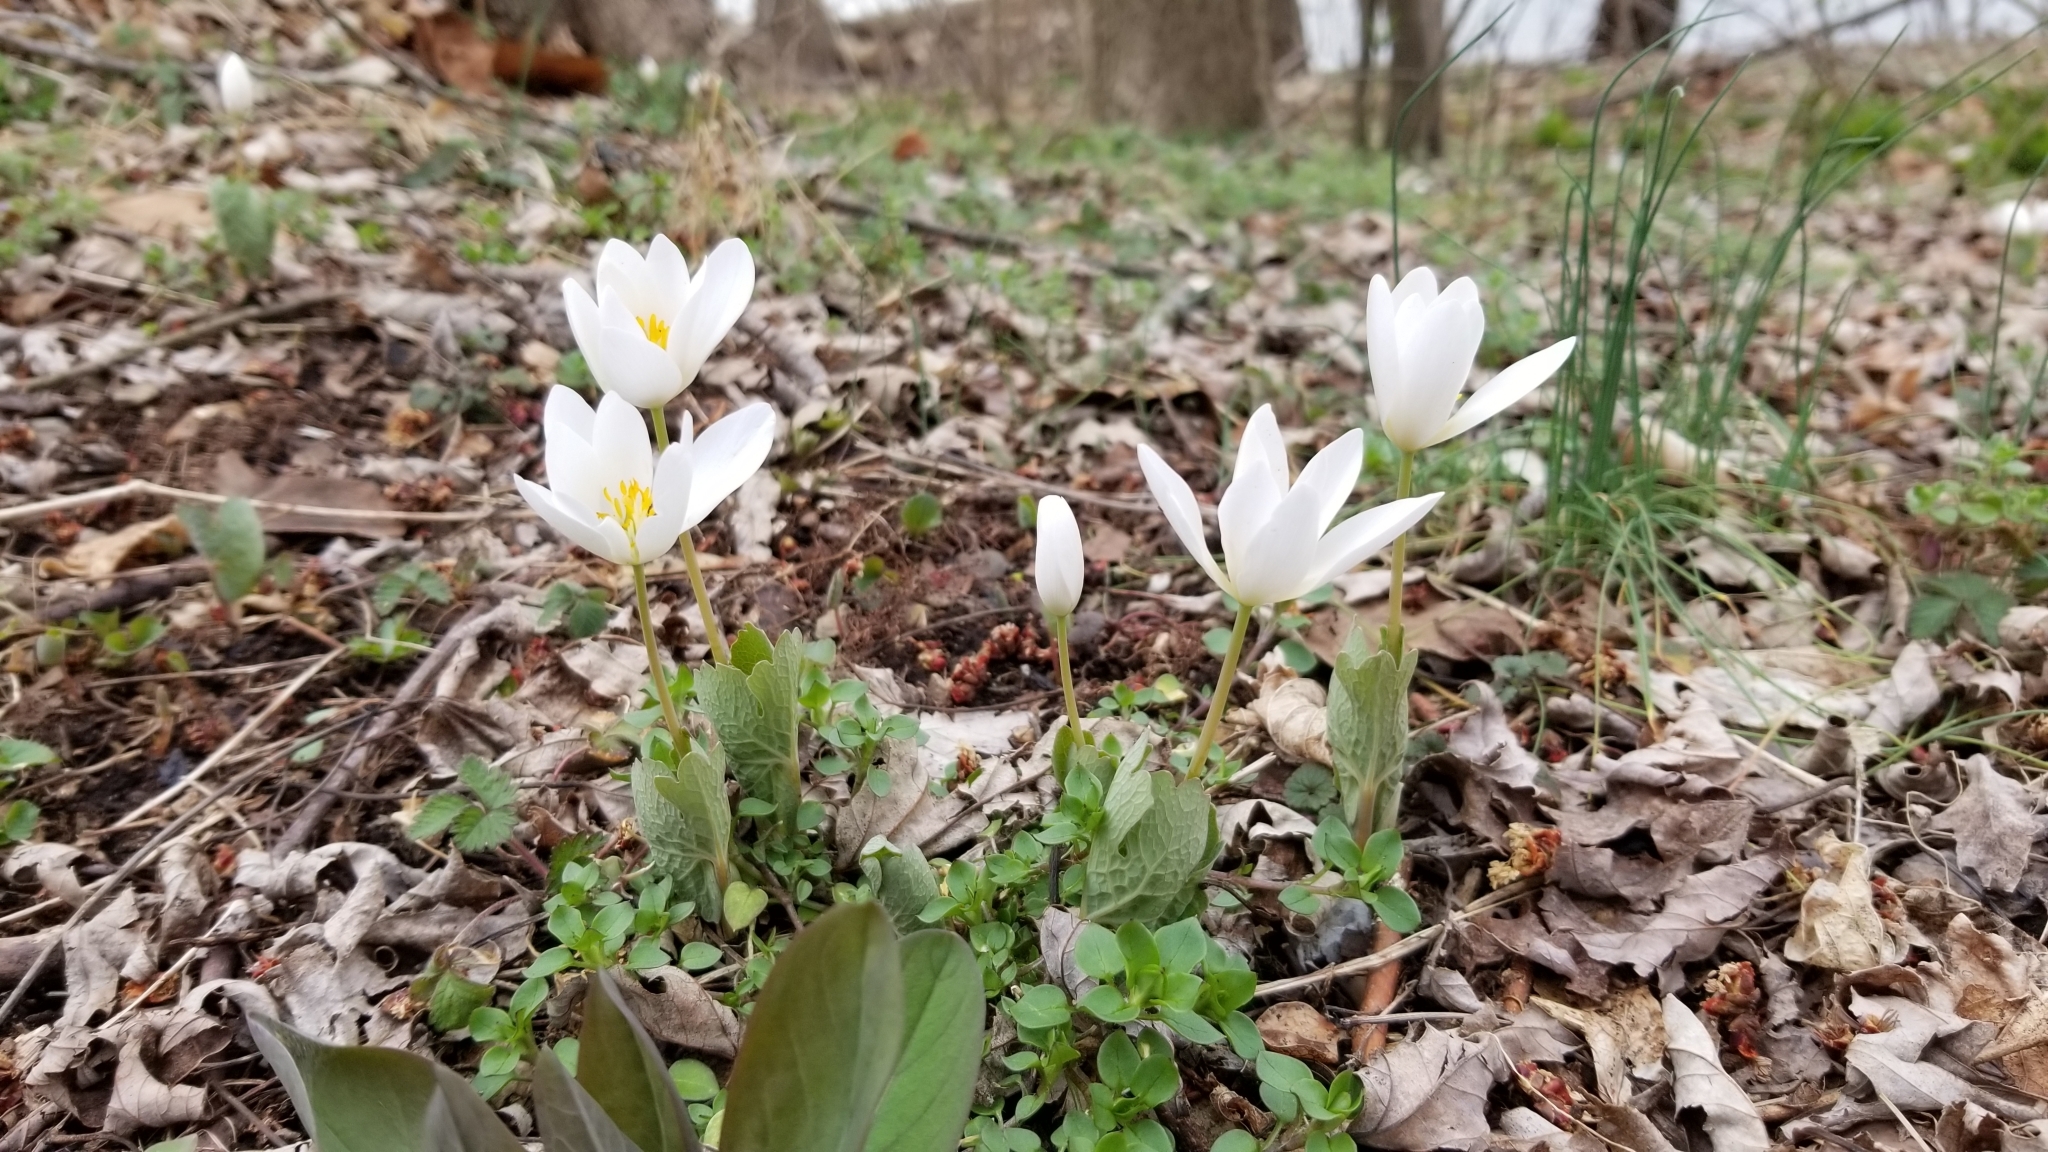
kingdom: Plantae
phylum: Tracheophyta
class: Magnoliopsida
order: Ranunculales
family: Papaveraceae
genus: Sanguinaria
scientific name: Sanguinaria canadensis
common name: Bloodroot
